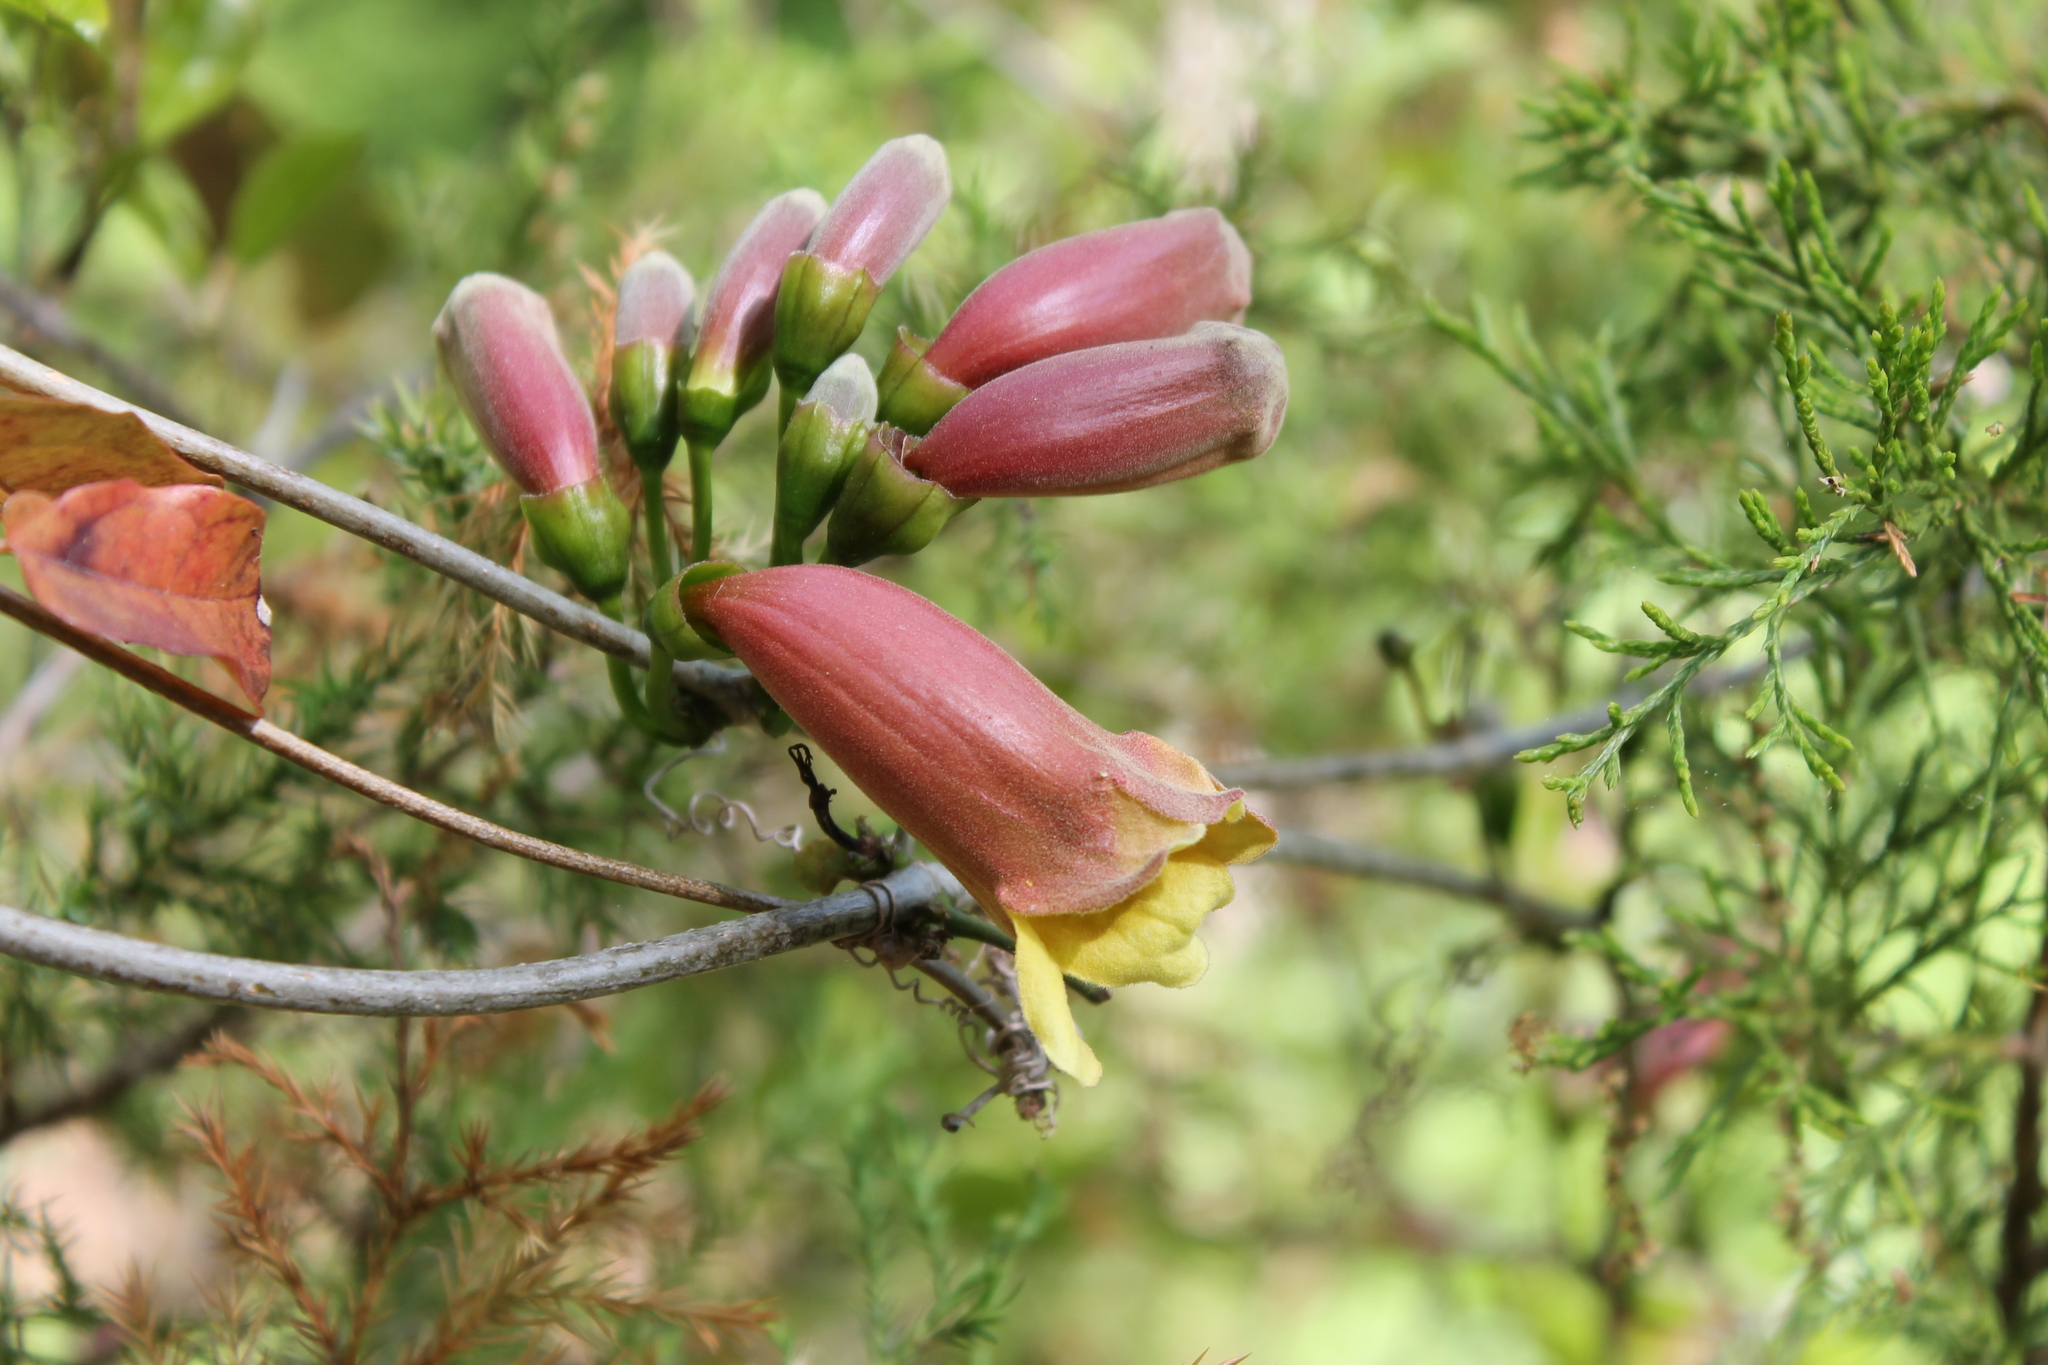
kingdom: Plantae
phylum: Tracheophyta
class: Magnoliopsida
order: Lamiales
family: Bignoniaceae
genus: Bignonia
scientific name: Bignonia capreolata
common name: Crossvine
